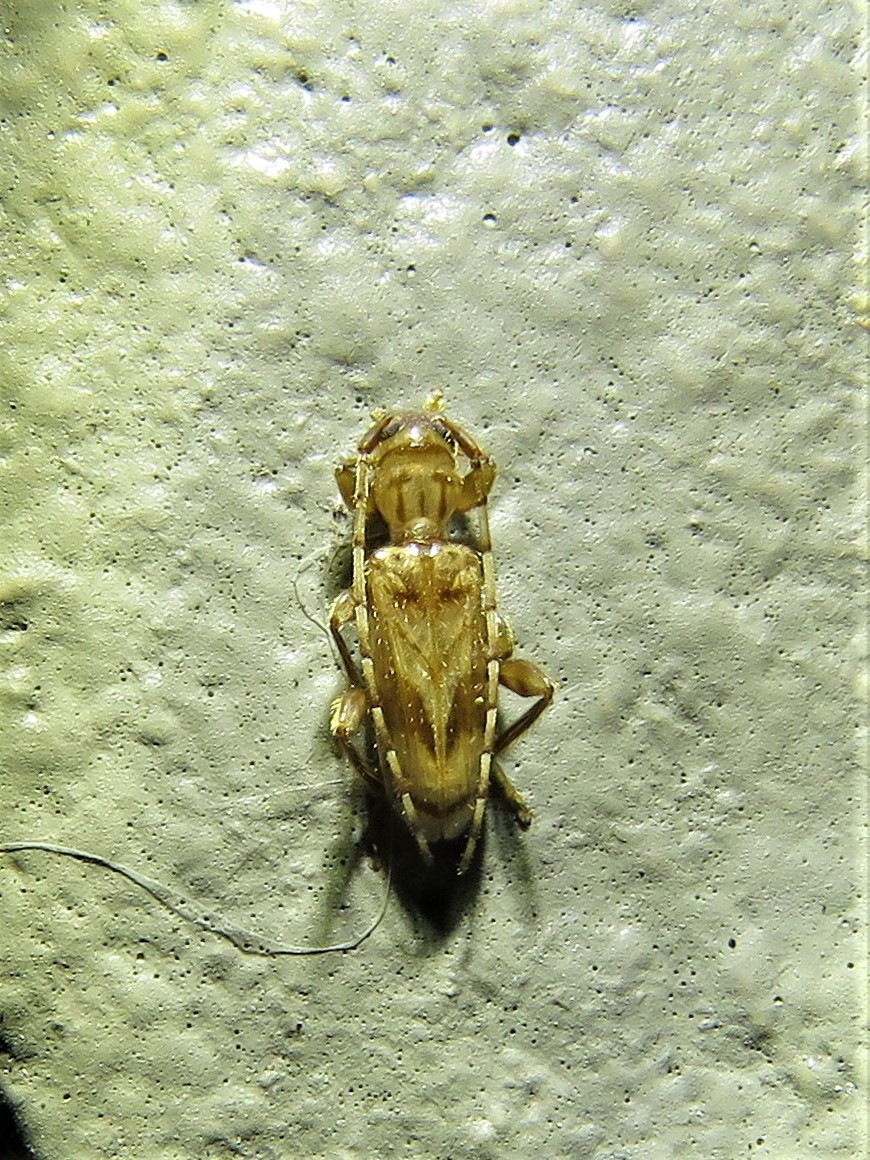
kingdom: Animalia
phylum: Arthropoda
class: Insecta
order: Coleoptera
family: Cerambycidae
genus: Obrium
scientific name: Obrium maculatum
